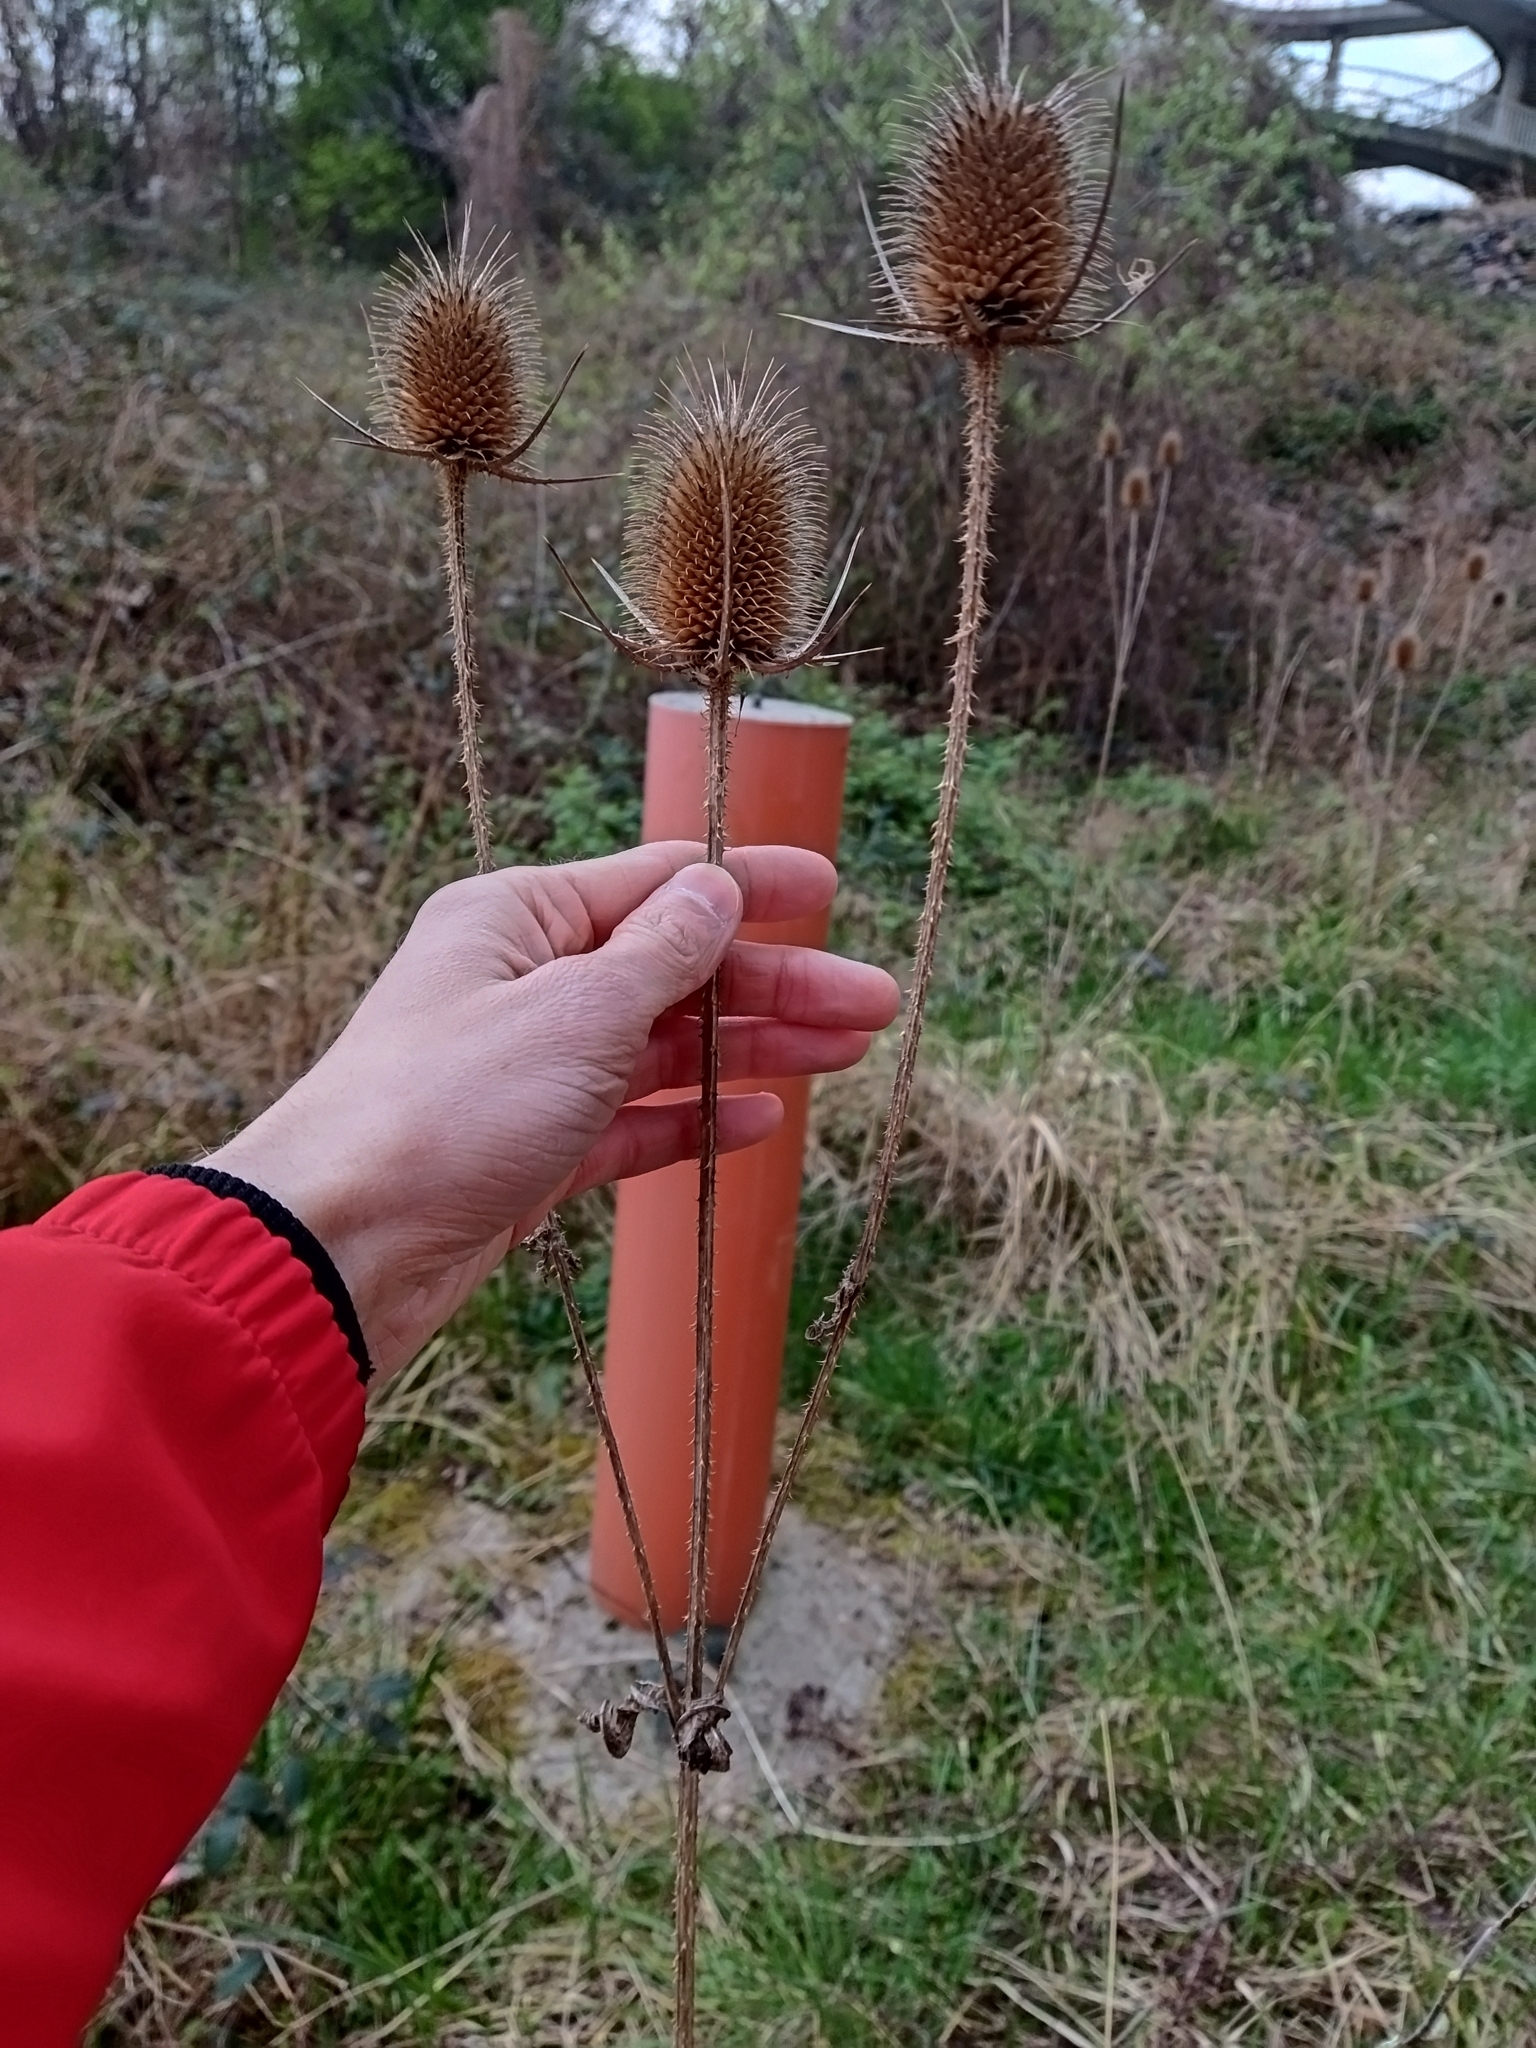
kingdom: Plantae
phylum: Tracheophyta
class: Magnoliopsida
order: Dipsacales
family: Caprifoliaceae
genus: Dipsacus
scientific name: Dipsacus laciniatus
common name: Cut-leaved teasel
